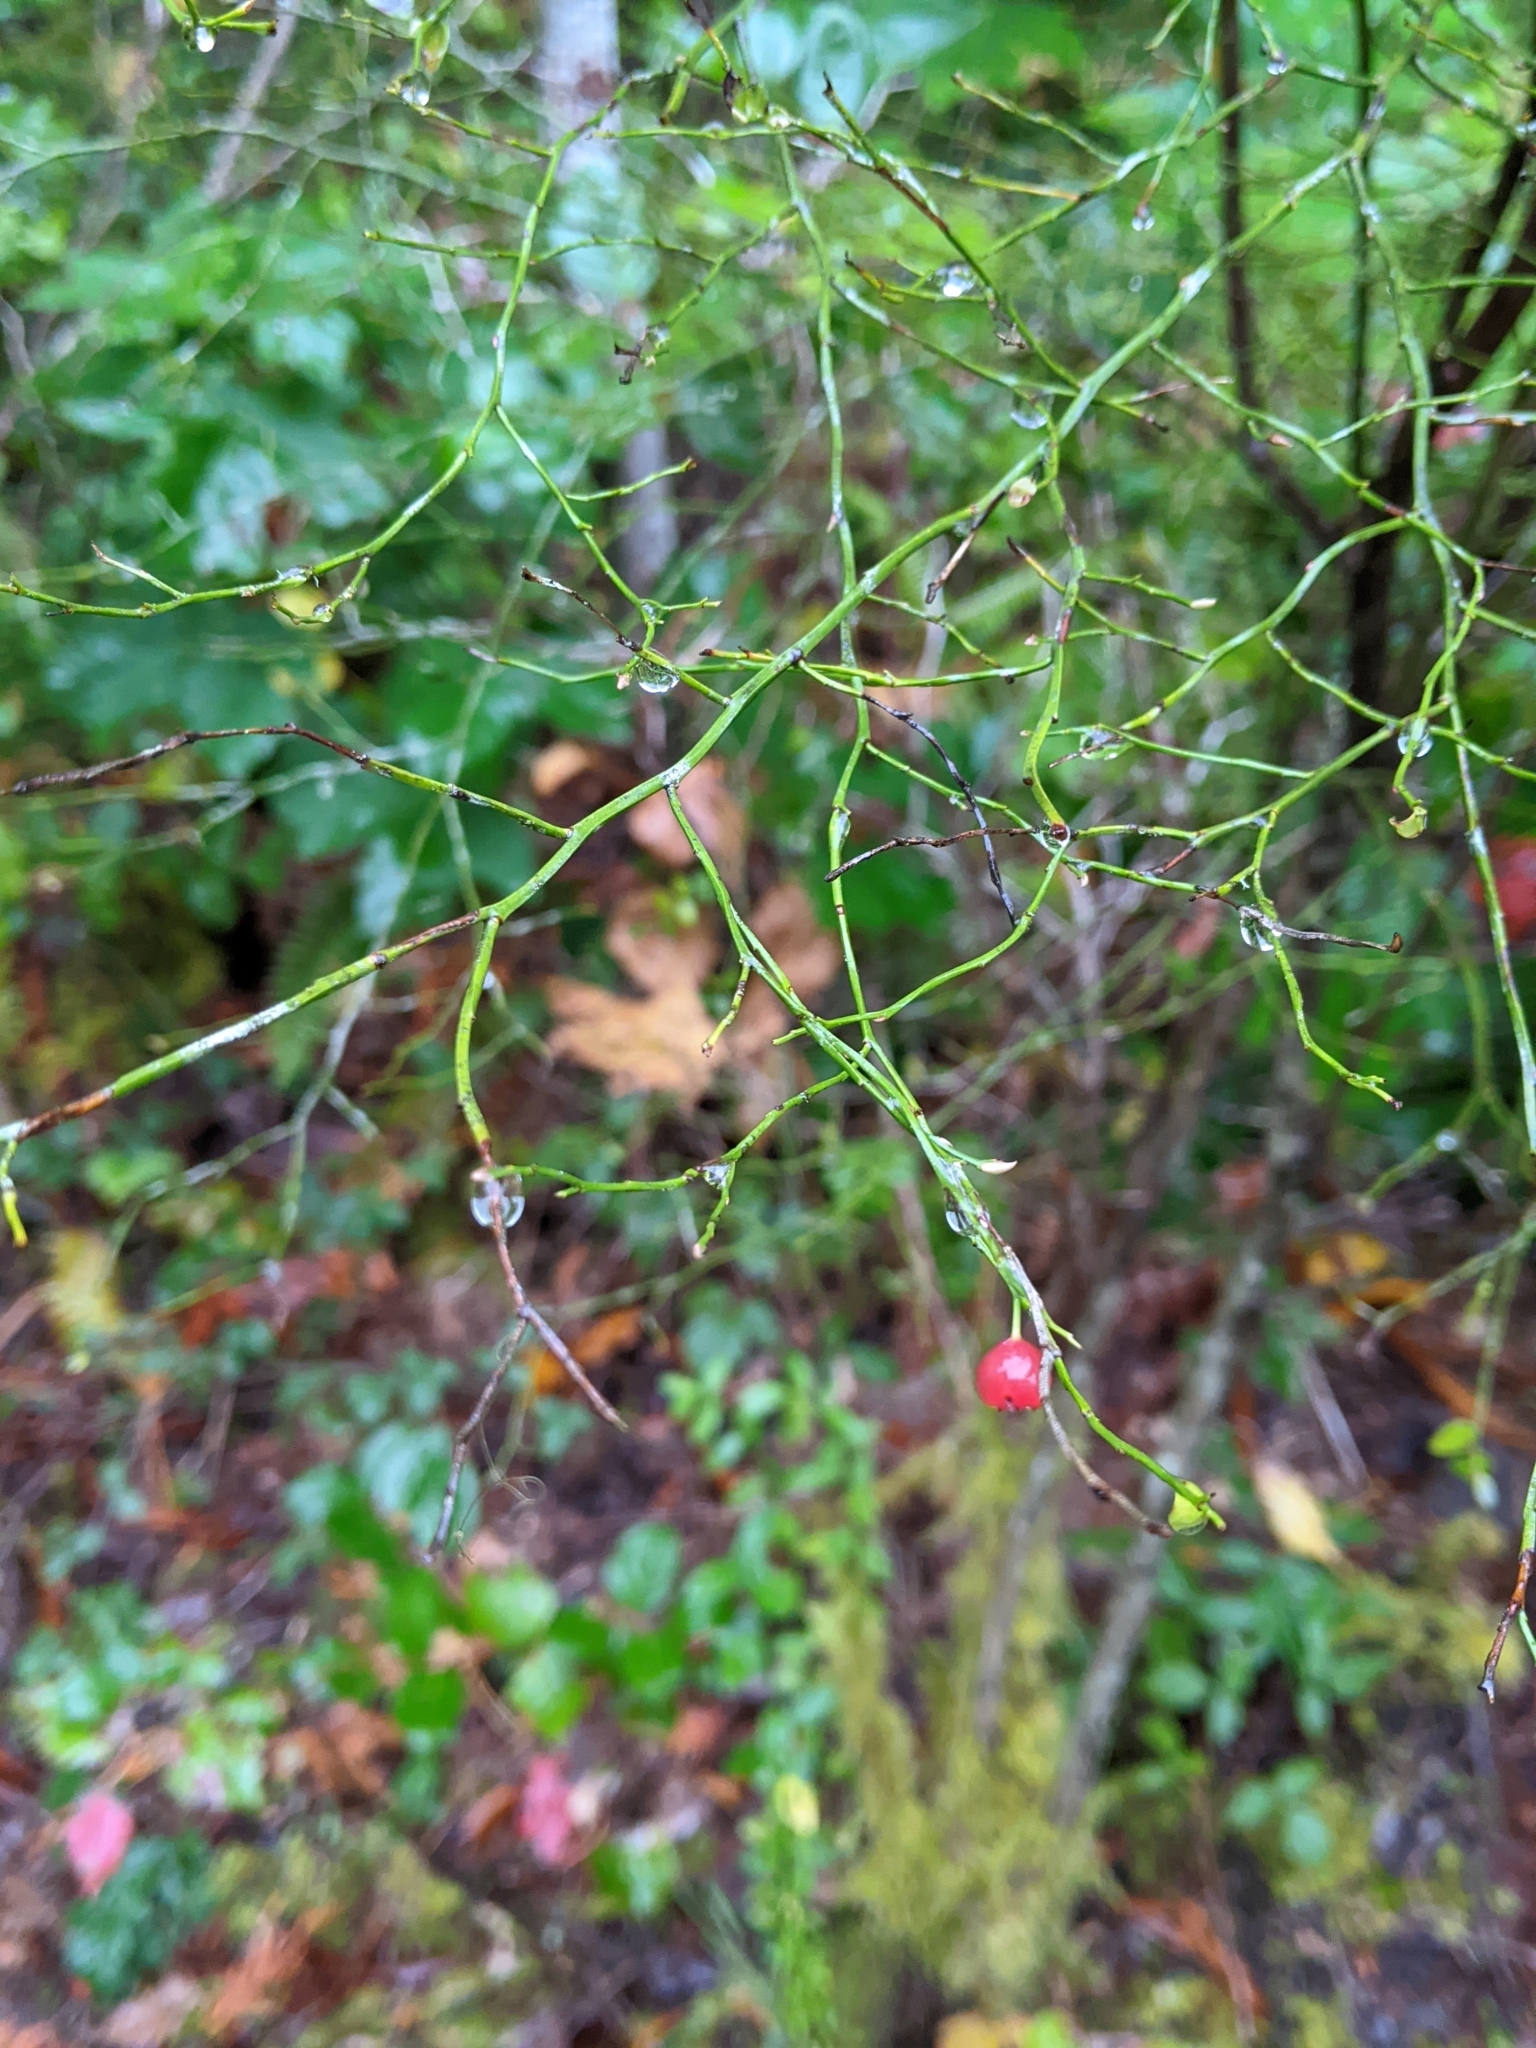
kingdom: Plantae
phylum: Tracheophyta
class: Magnoliopsida
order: Ericales
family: Ericaceae
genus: Vaccinium
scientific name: Vaccinium parvifolium
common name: Red-huckleberry
